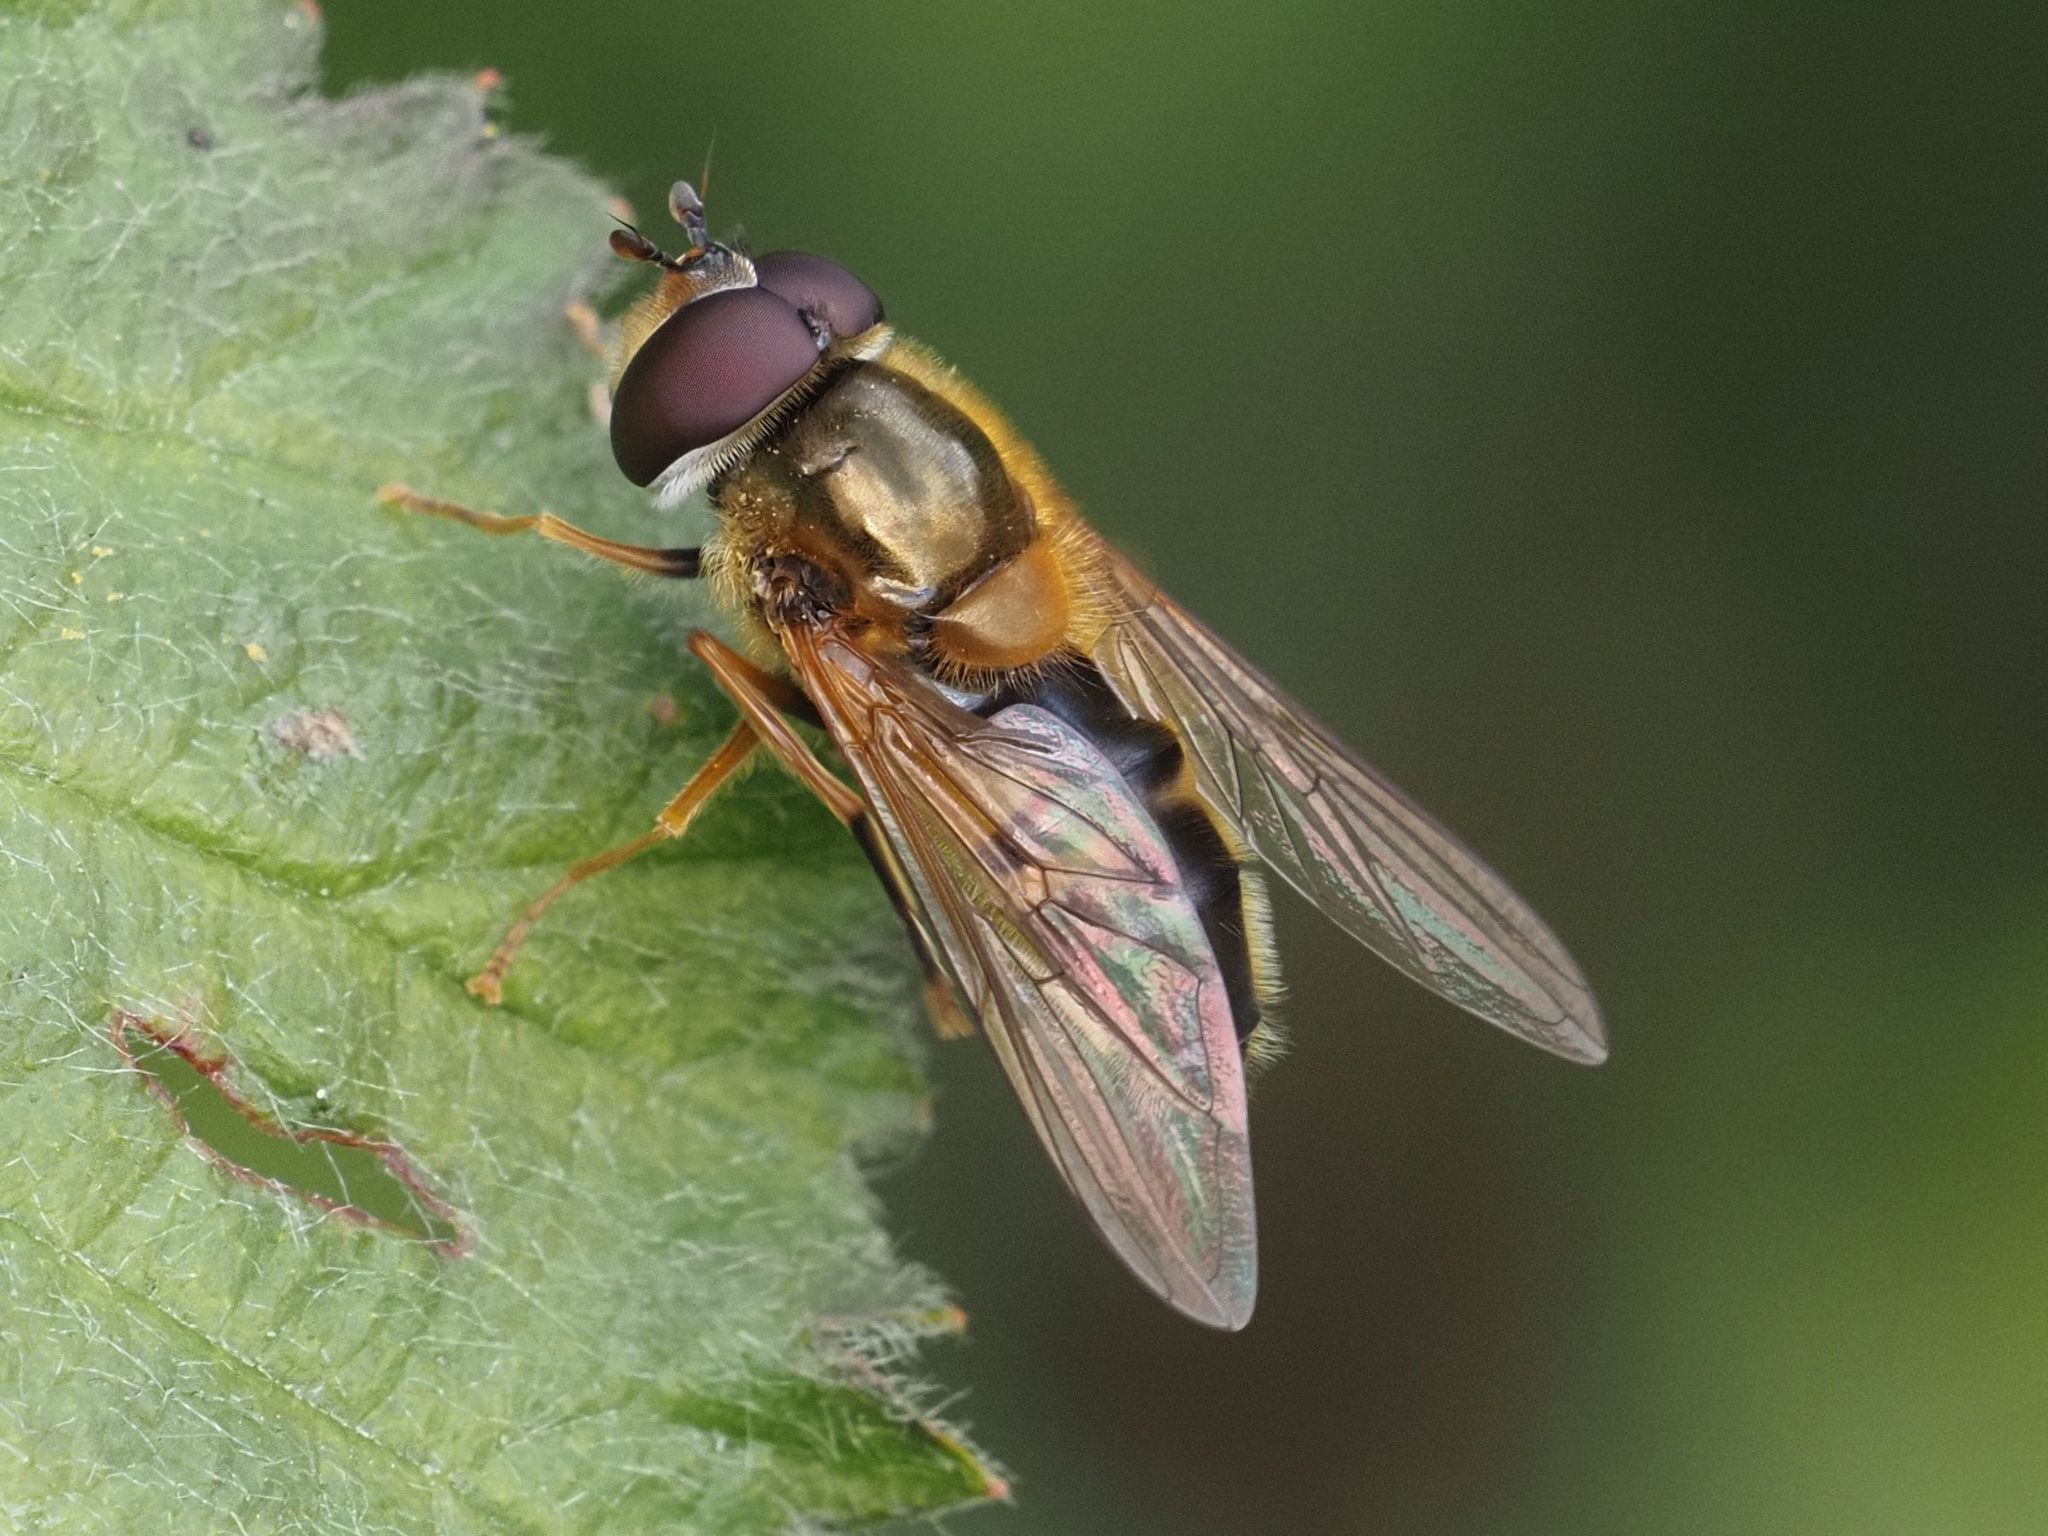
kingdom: Animalia
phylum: Arthropoda
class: Insecta
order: Diptera
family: Syrphidae
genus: Epistrophe
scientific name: Epistrophe eligans
